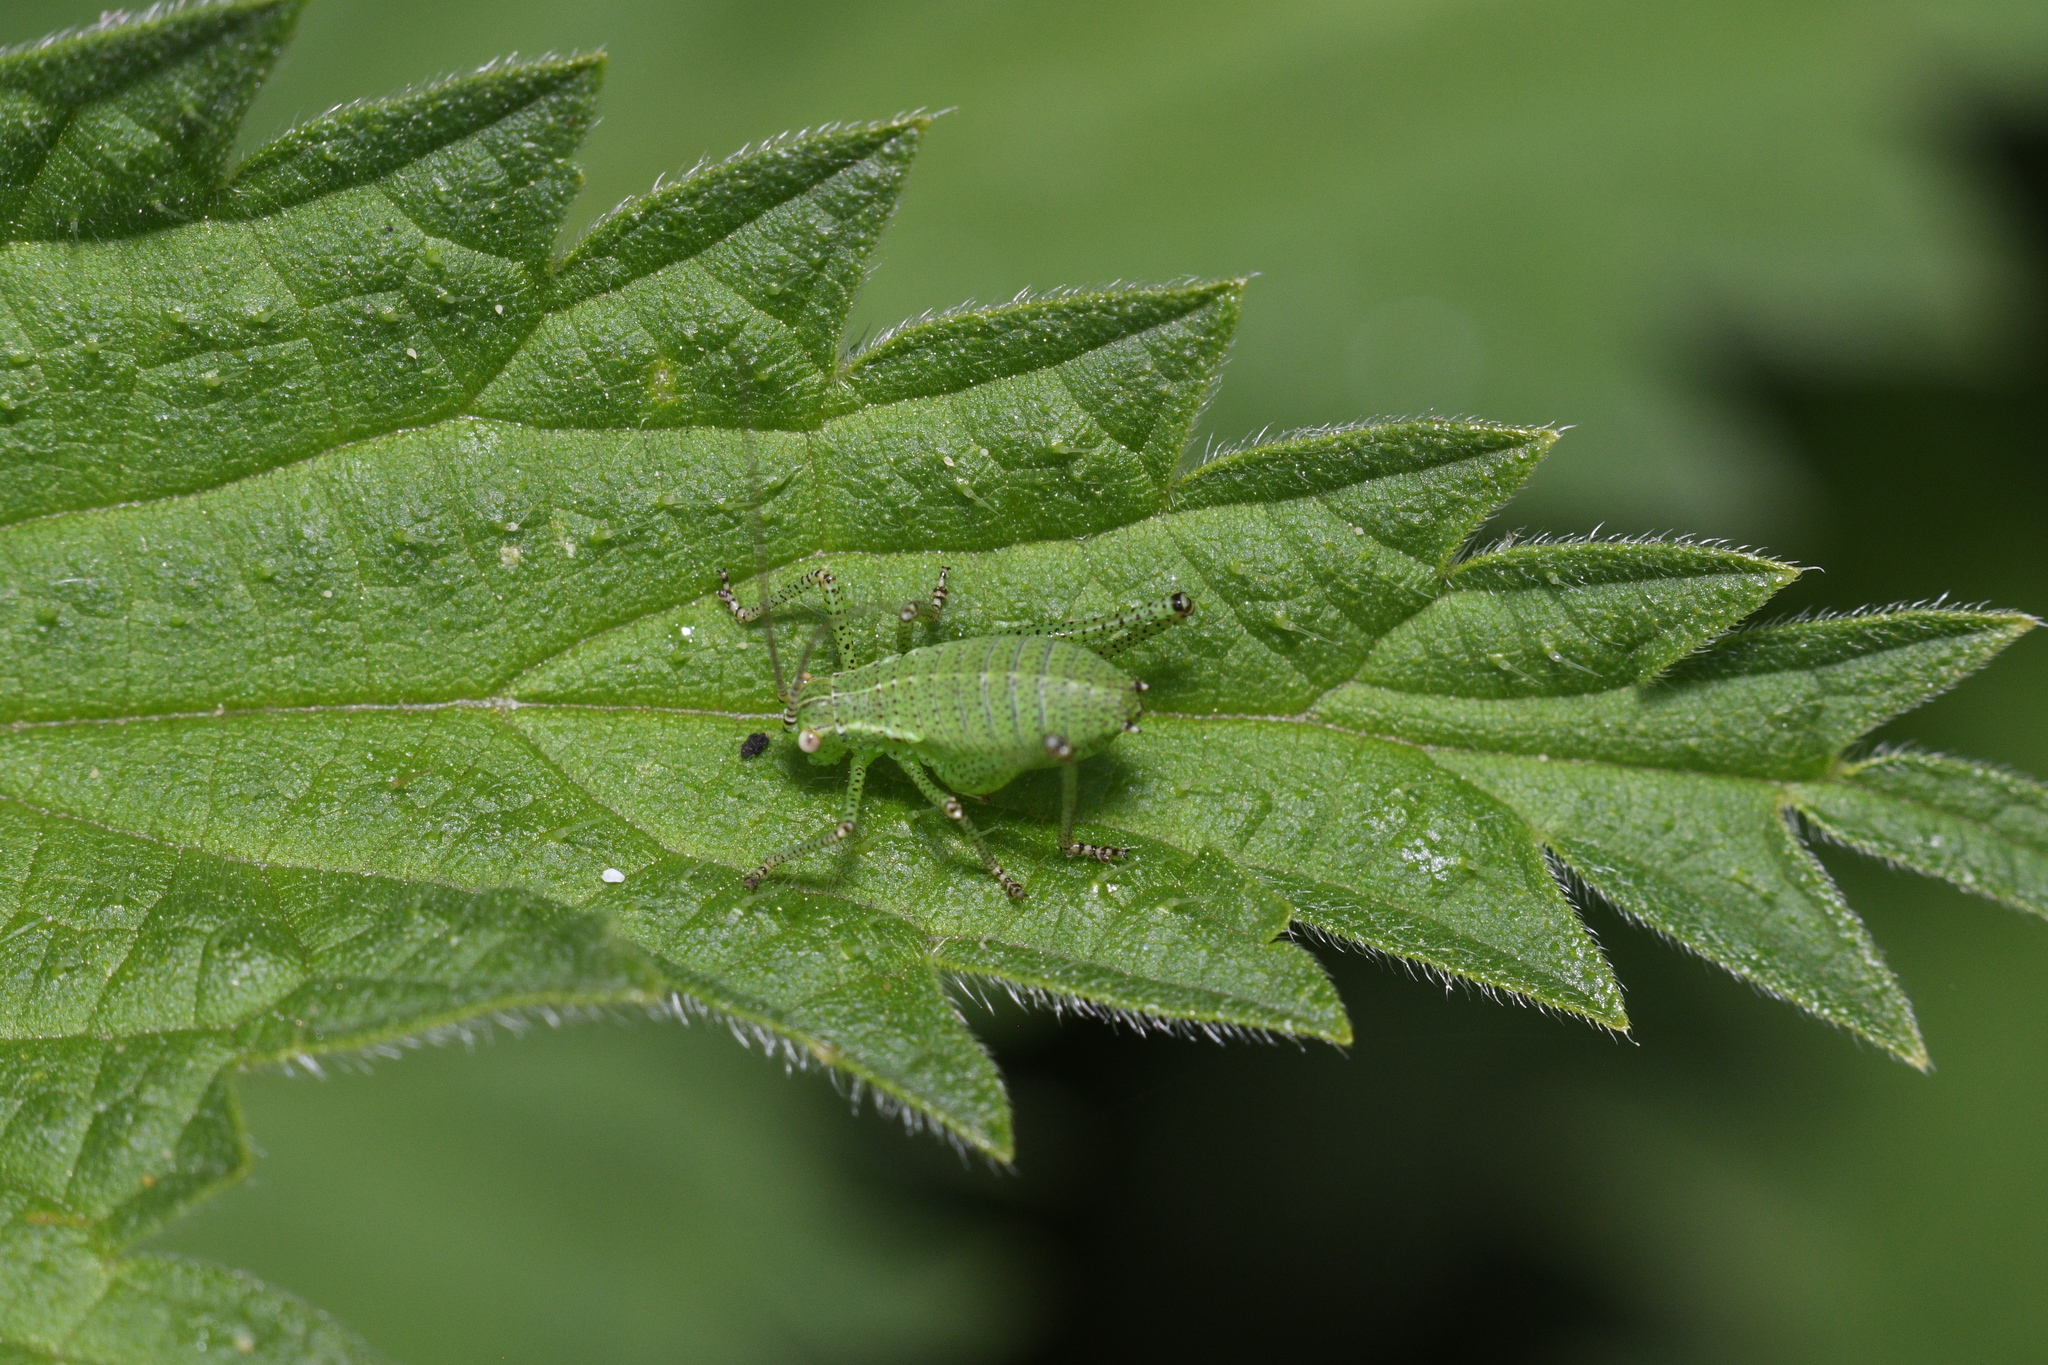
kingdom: Animalia
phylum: Arthropoda
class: Insecta
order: Orthoptera
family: Tettigoniidae
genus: Leptophyes
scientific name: Leptophyes punctatissima
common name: Speckled bush-cricket
